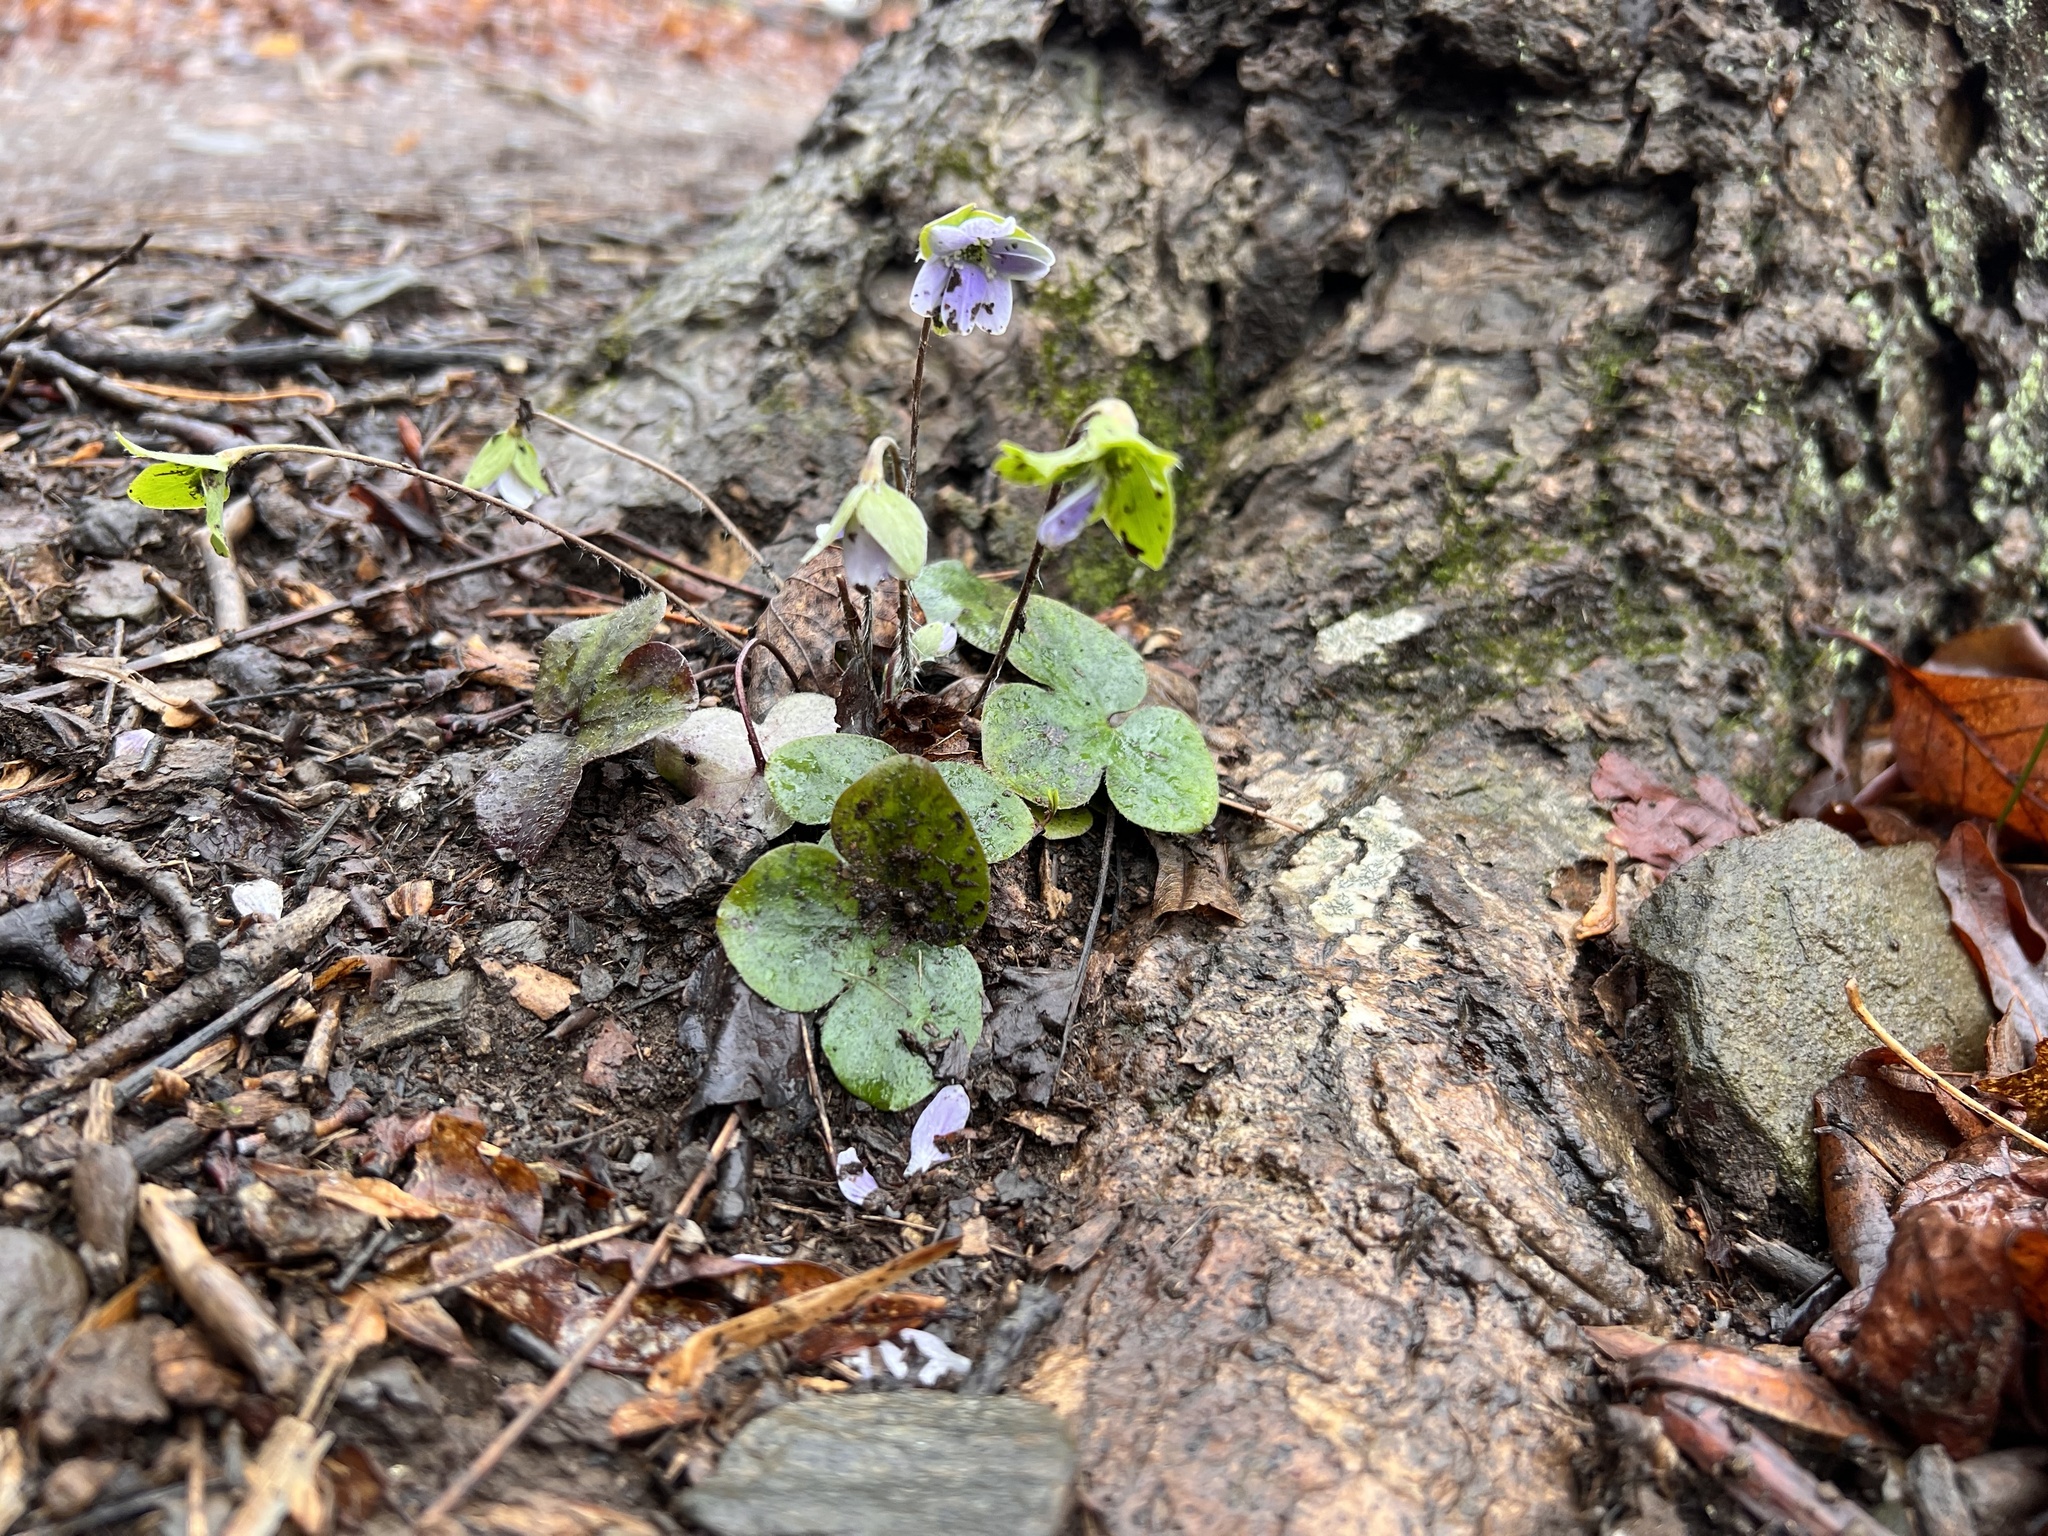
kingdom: Plantae
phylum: Tracheophyta
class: Magnoliopsida
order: Ranunculales
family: Ranunculaceae
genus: Hepatica
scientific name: Hepatica americana
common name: American hepatica
